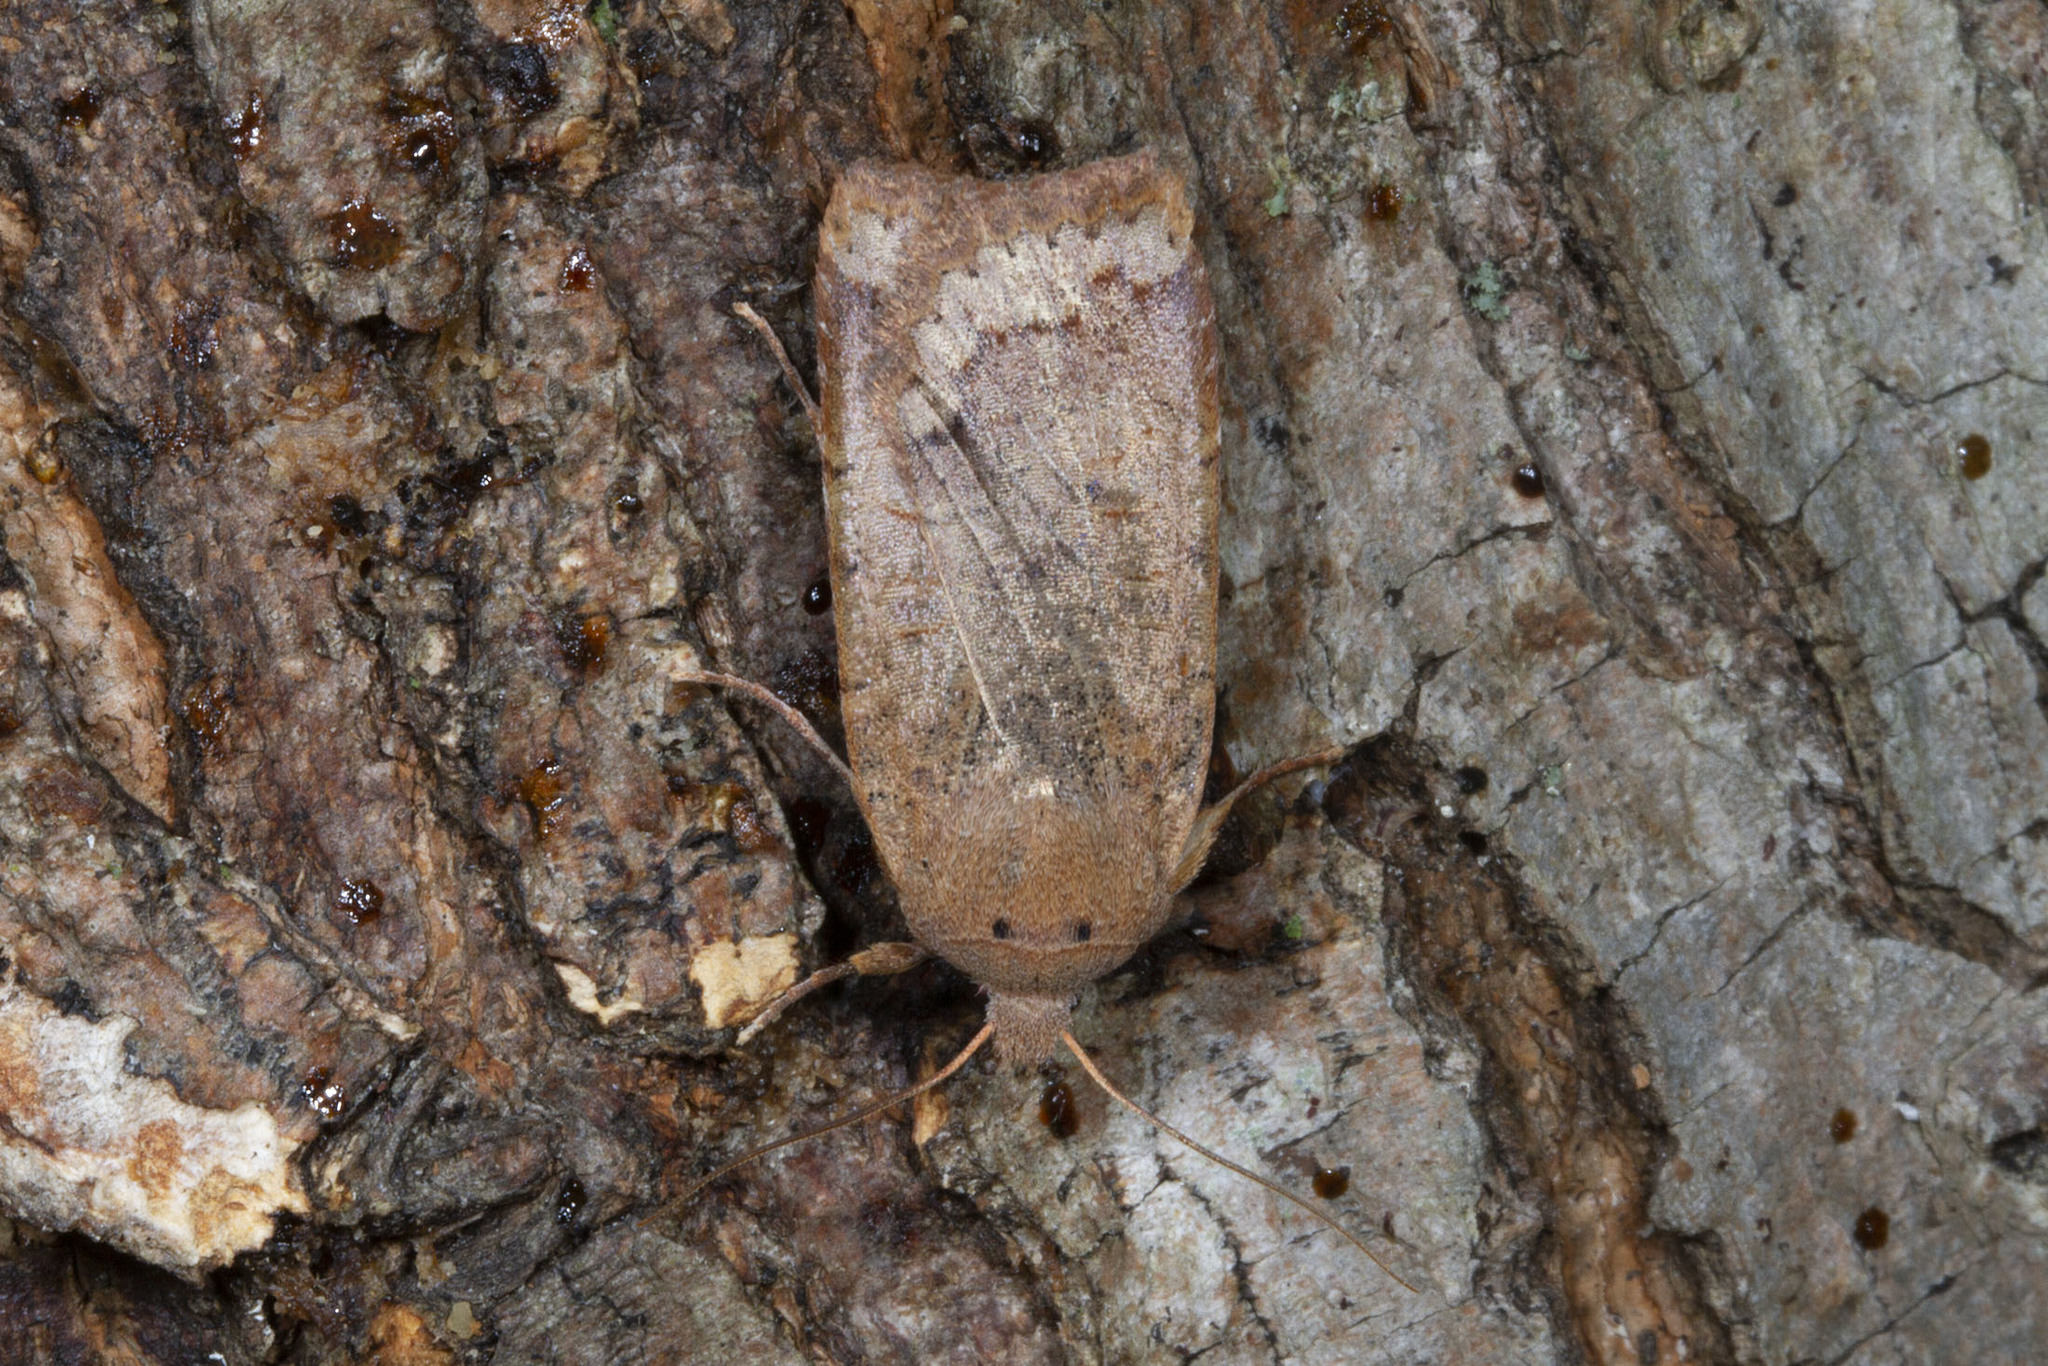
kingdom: Animalia
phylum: Arthropoda
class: Insecta
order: Lepidoptera
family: Noctuidae
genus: Sericaglaea
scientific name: Sericaglaea signata
